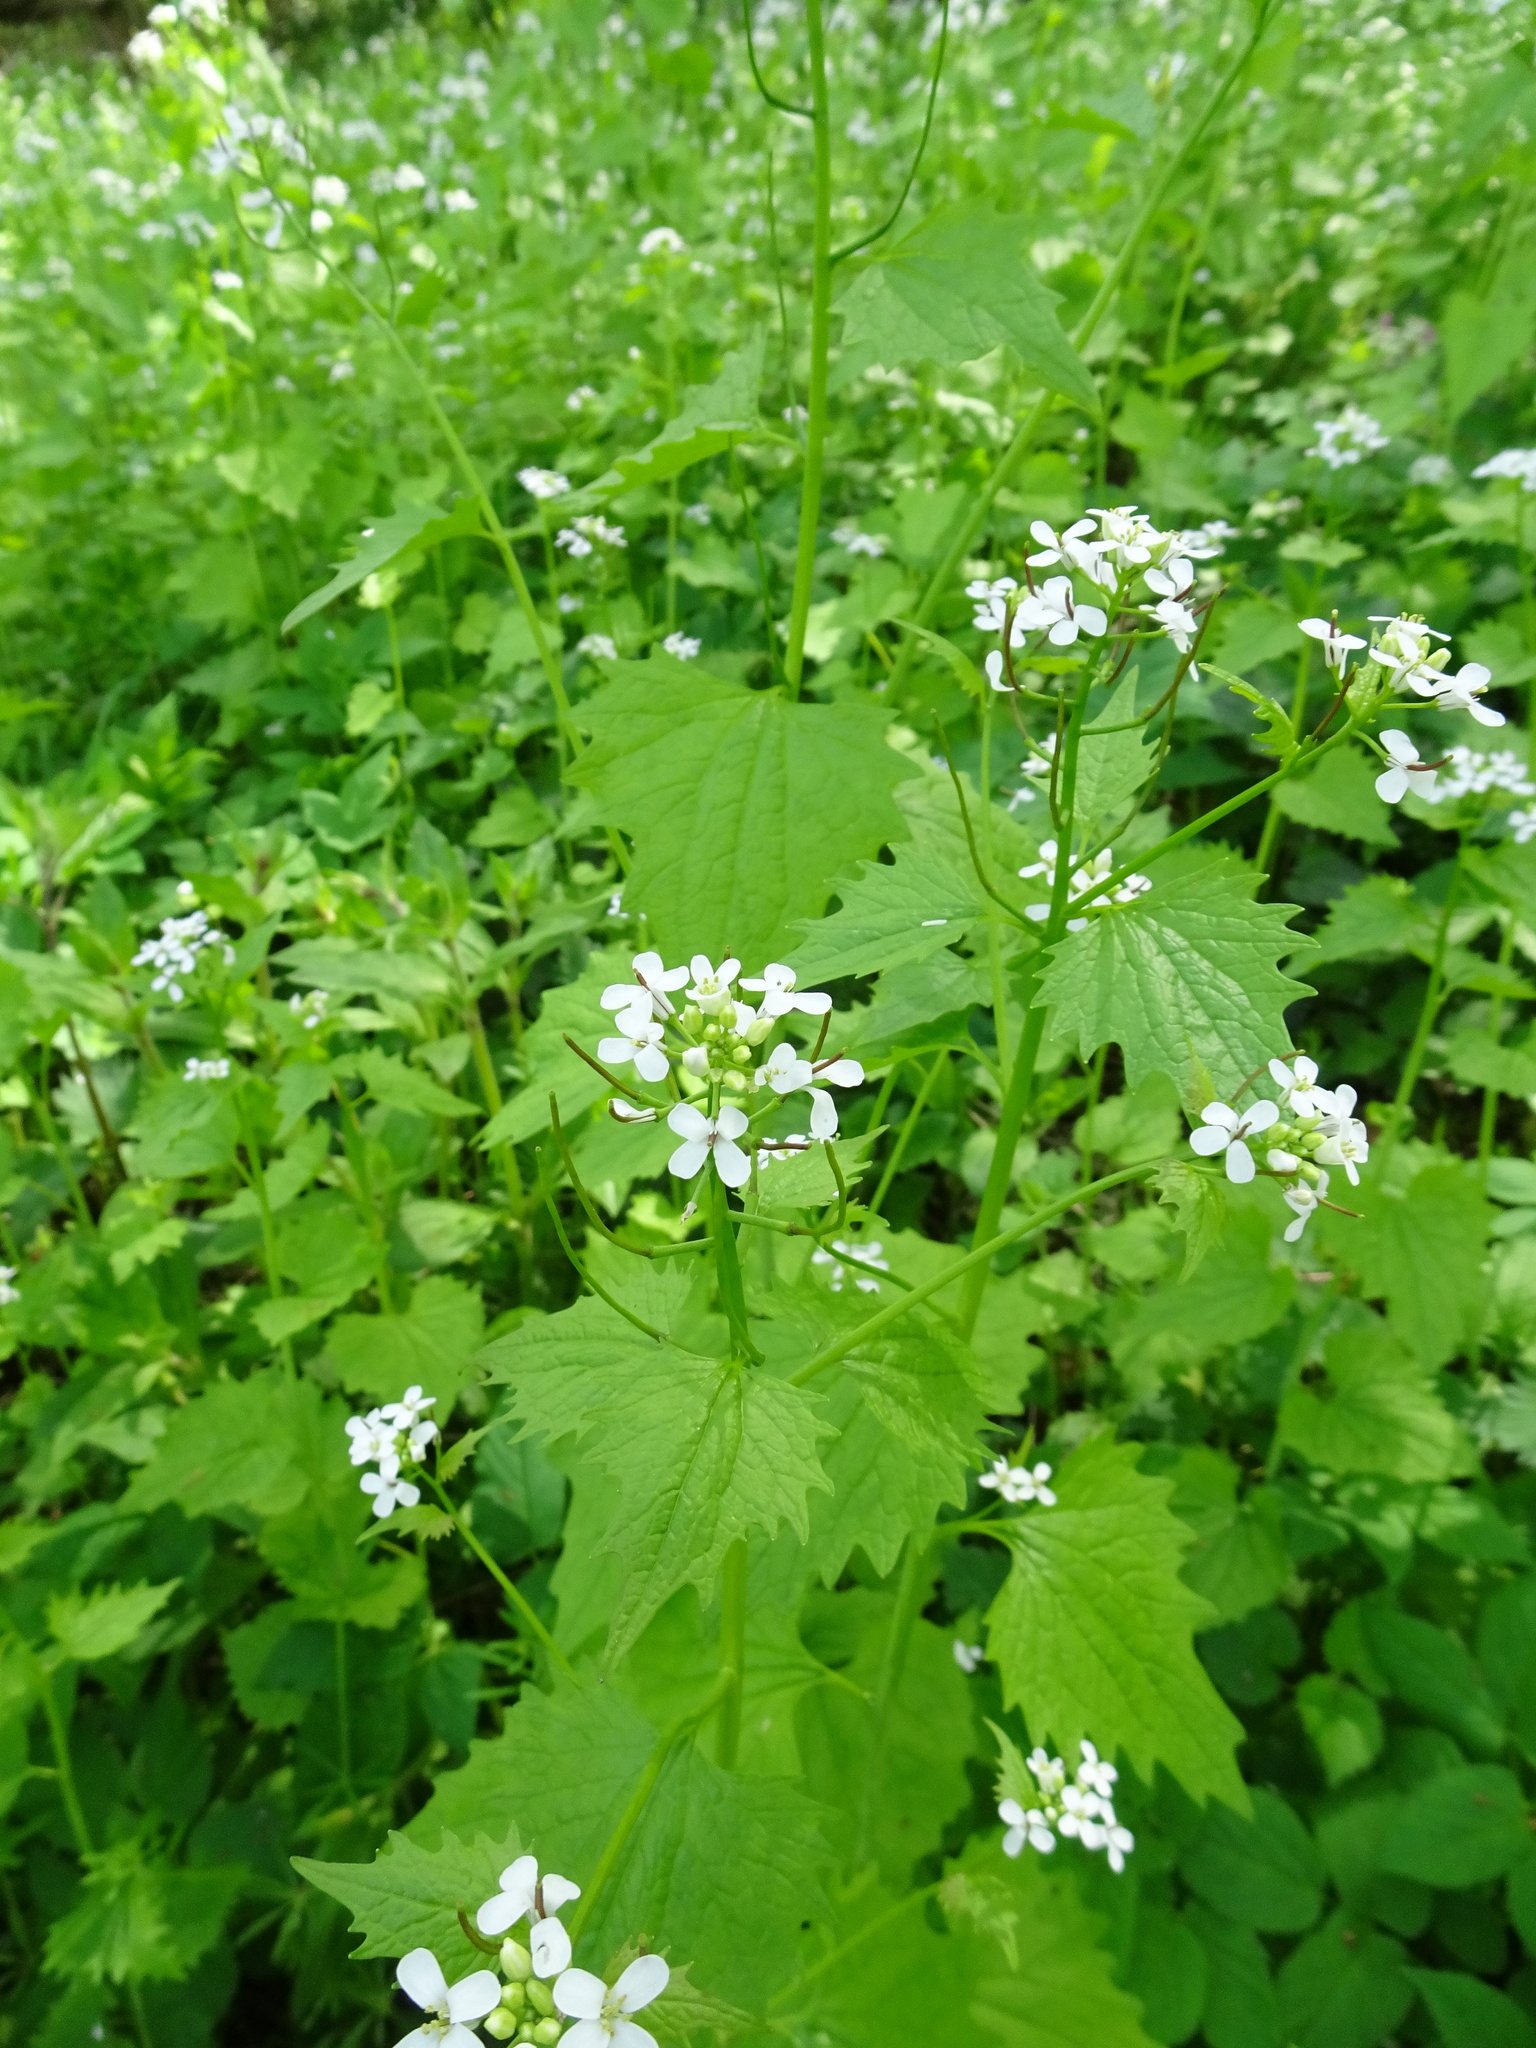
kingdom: Plantae
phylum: Tracheophyta
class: Magnoliopsida
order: Brassicales
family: Brassicaceae
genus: Alliaria
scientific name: Alliaria petiolata
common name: Garlic mustard
